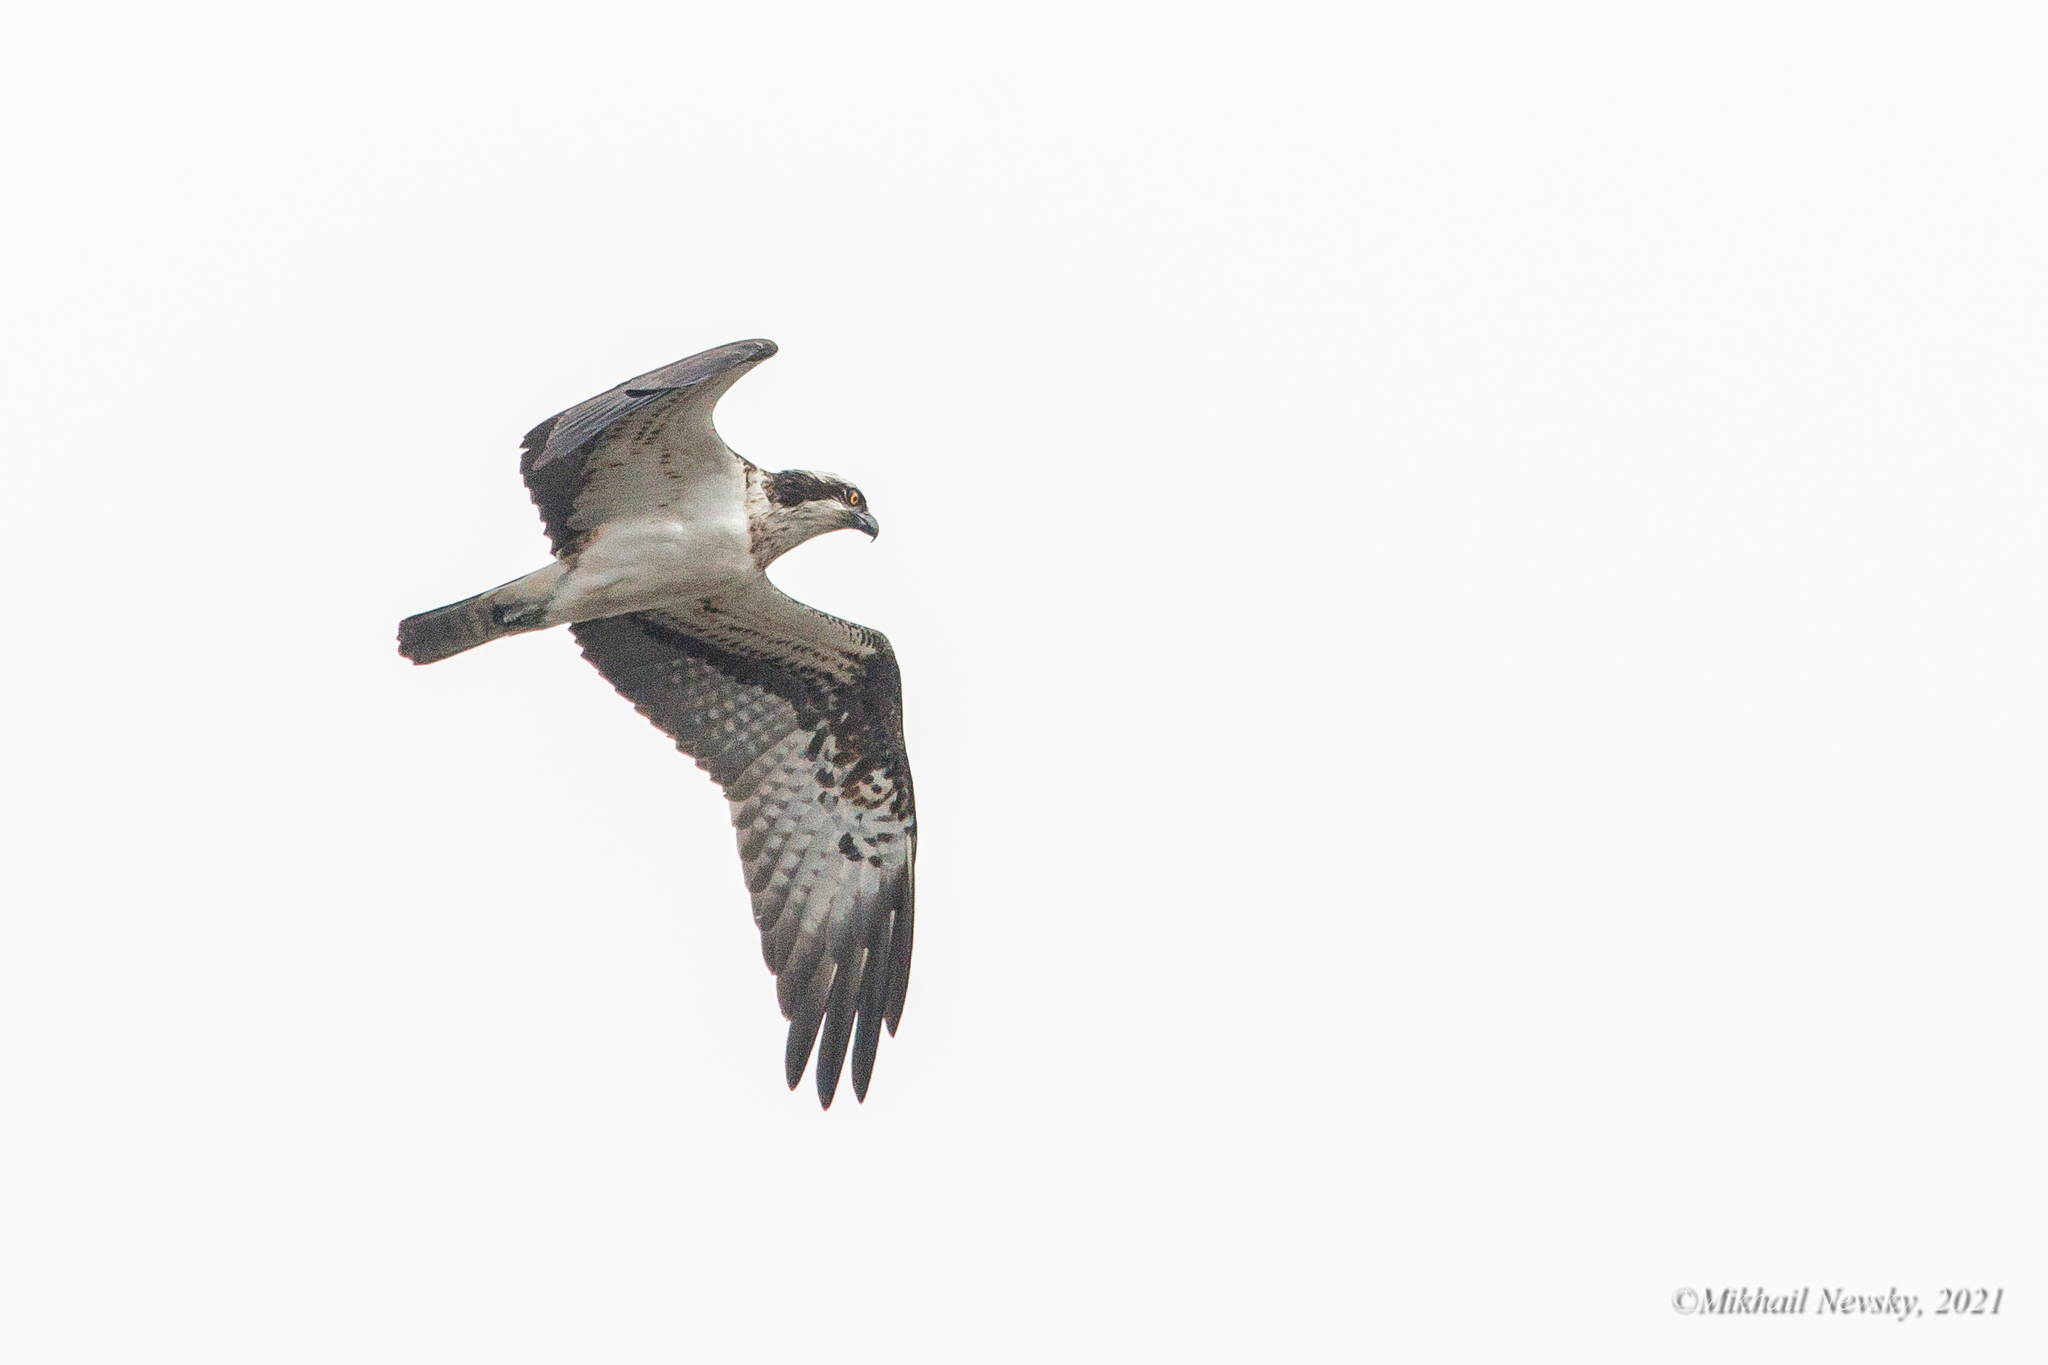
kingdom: Animalia
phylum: Chordata
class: Aves
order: Accipitriformes
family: Pandionidae
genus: Pandion
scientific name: Pandion haliaetus
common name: Osprey
